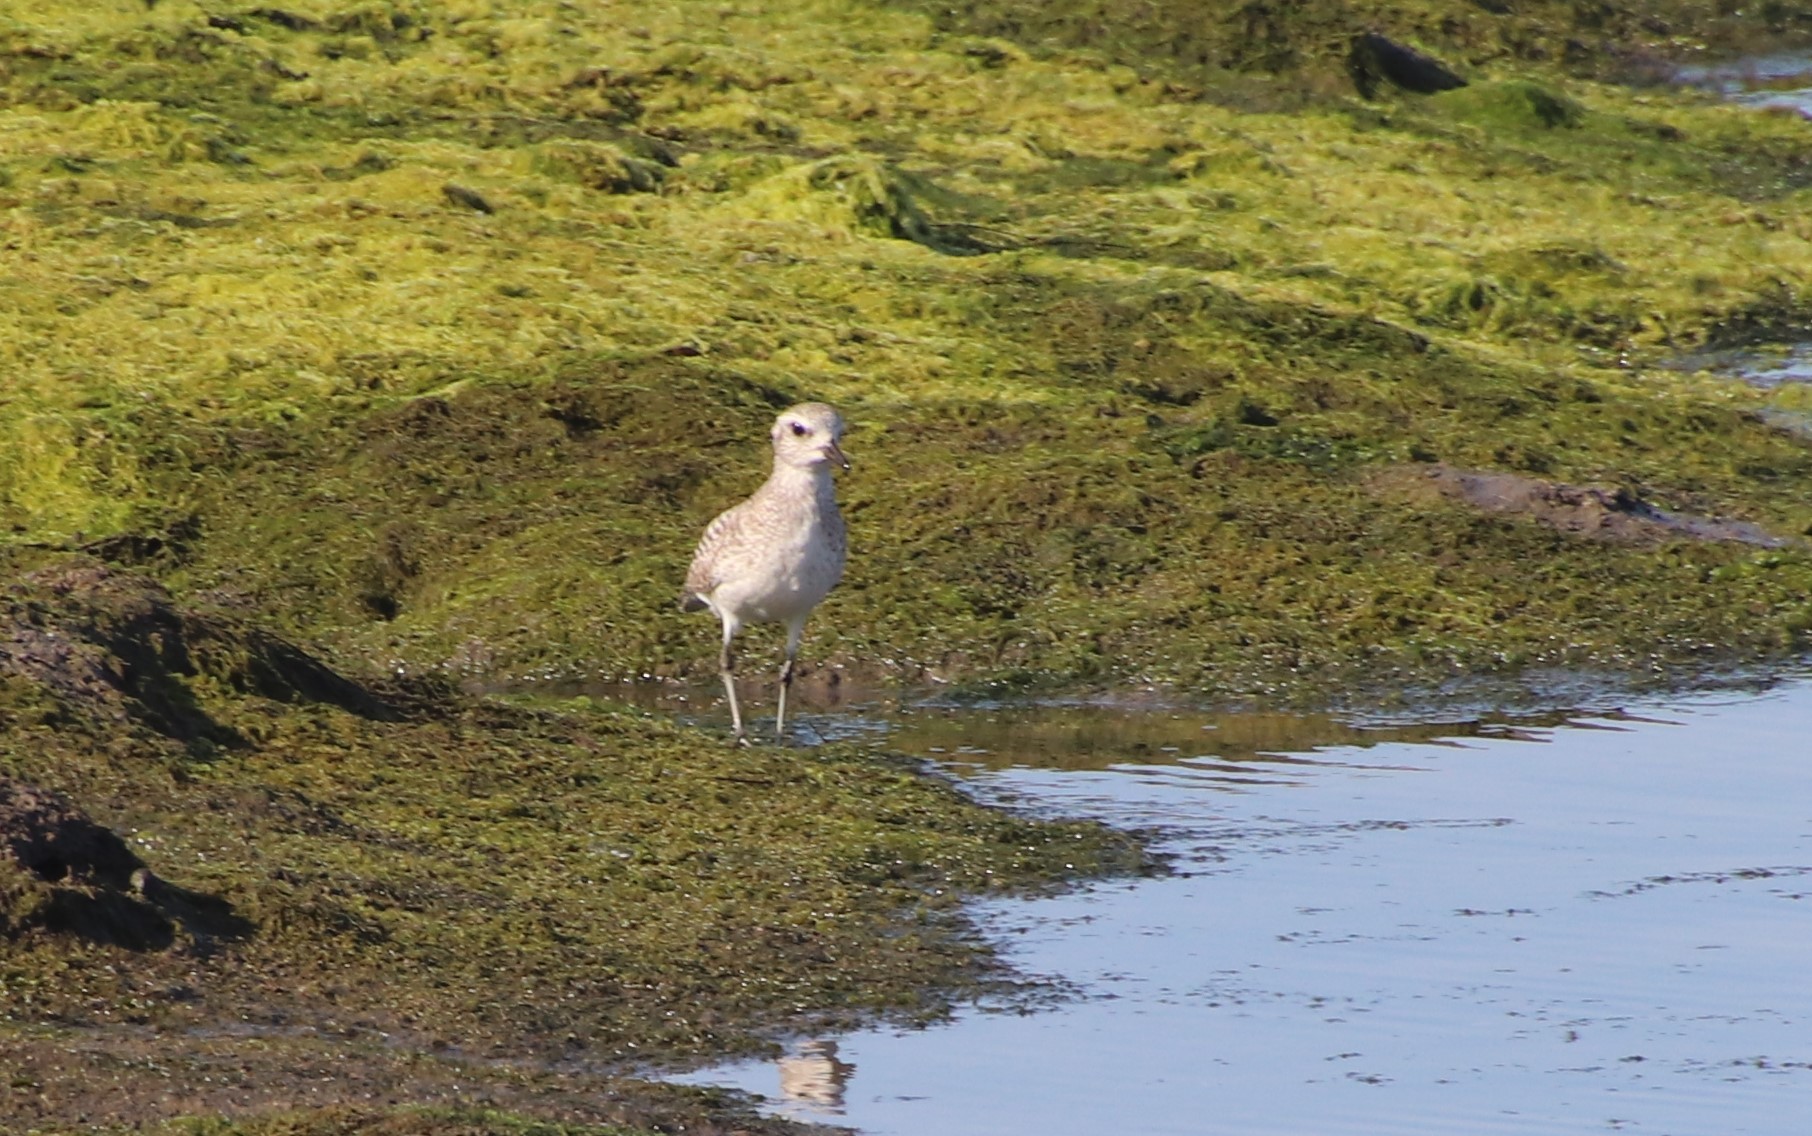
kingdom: Animalia
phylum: Chordata
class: Aves
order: Charadriiformes
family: Charadriidae
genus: Pluvialis
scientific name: Pluvialis squatarola
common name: Grey plover
